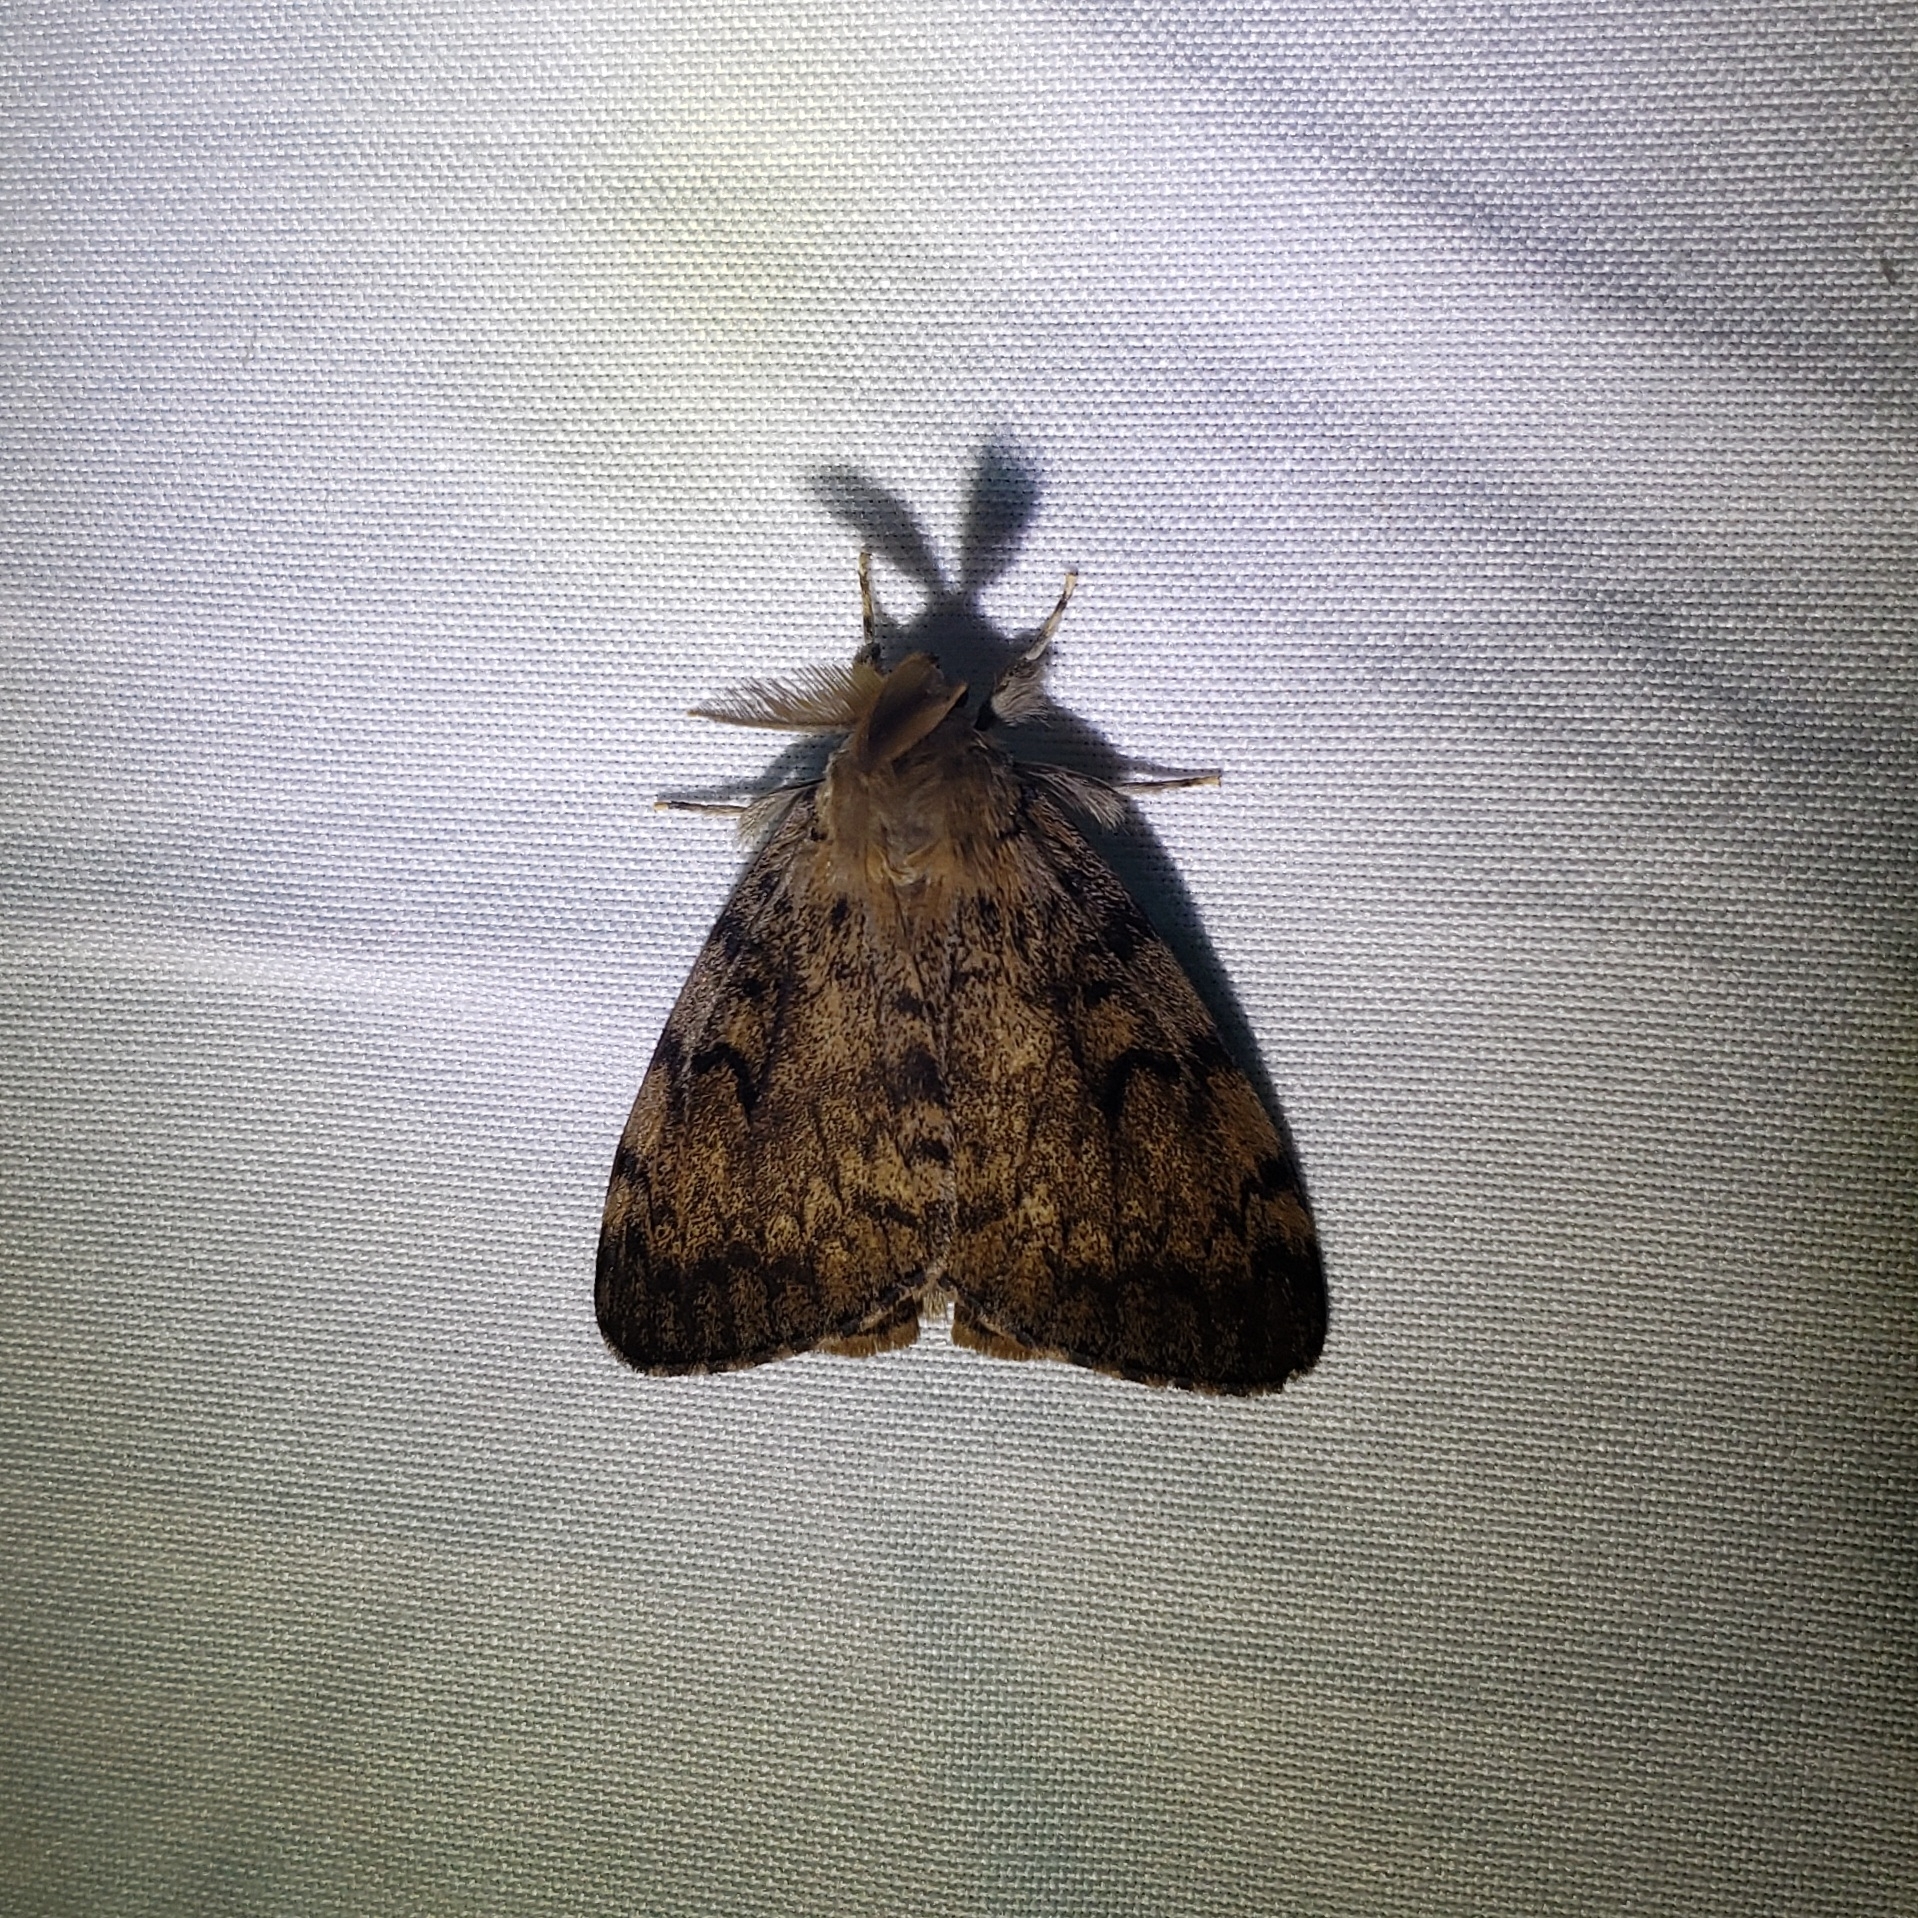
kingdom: Animalia
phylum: Arthropoda
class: Insecta
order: Lepidoptera
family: Erebidae
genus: Lymantria
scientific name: Lymantria dispar
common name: Gypsy moth
